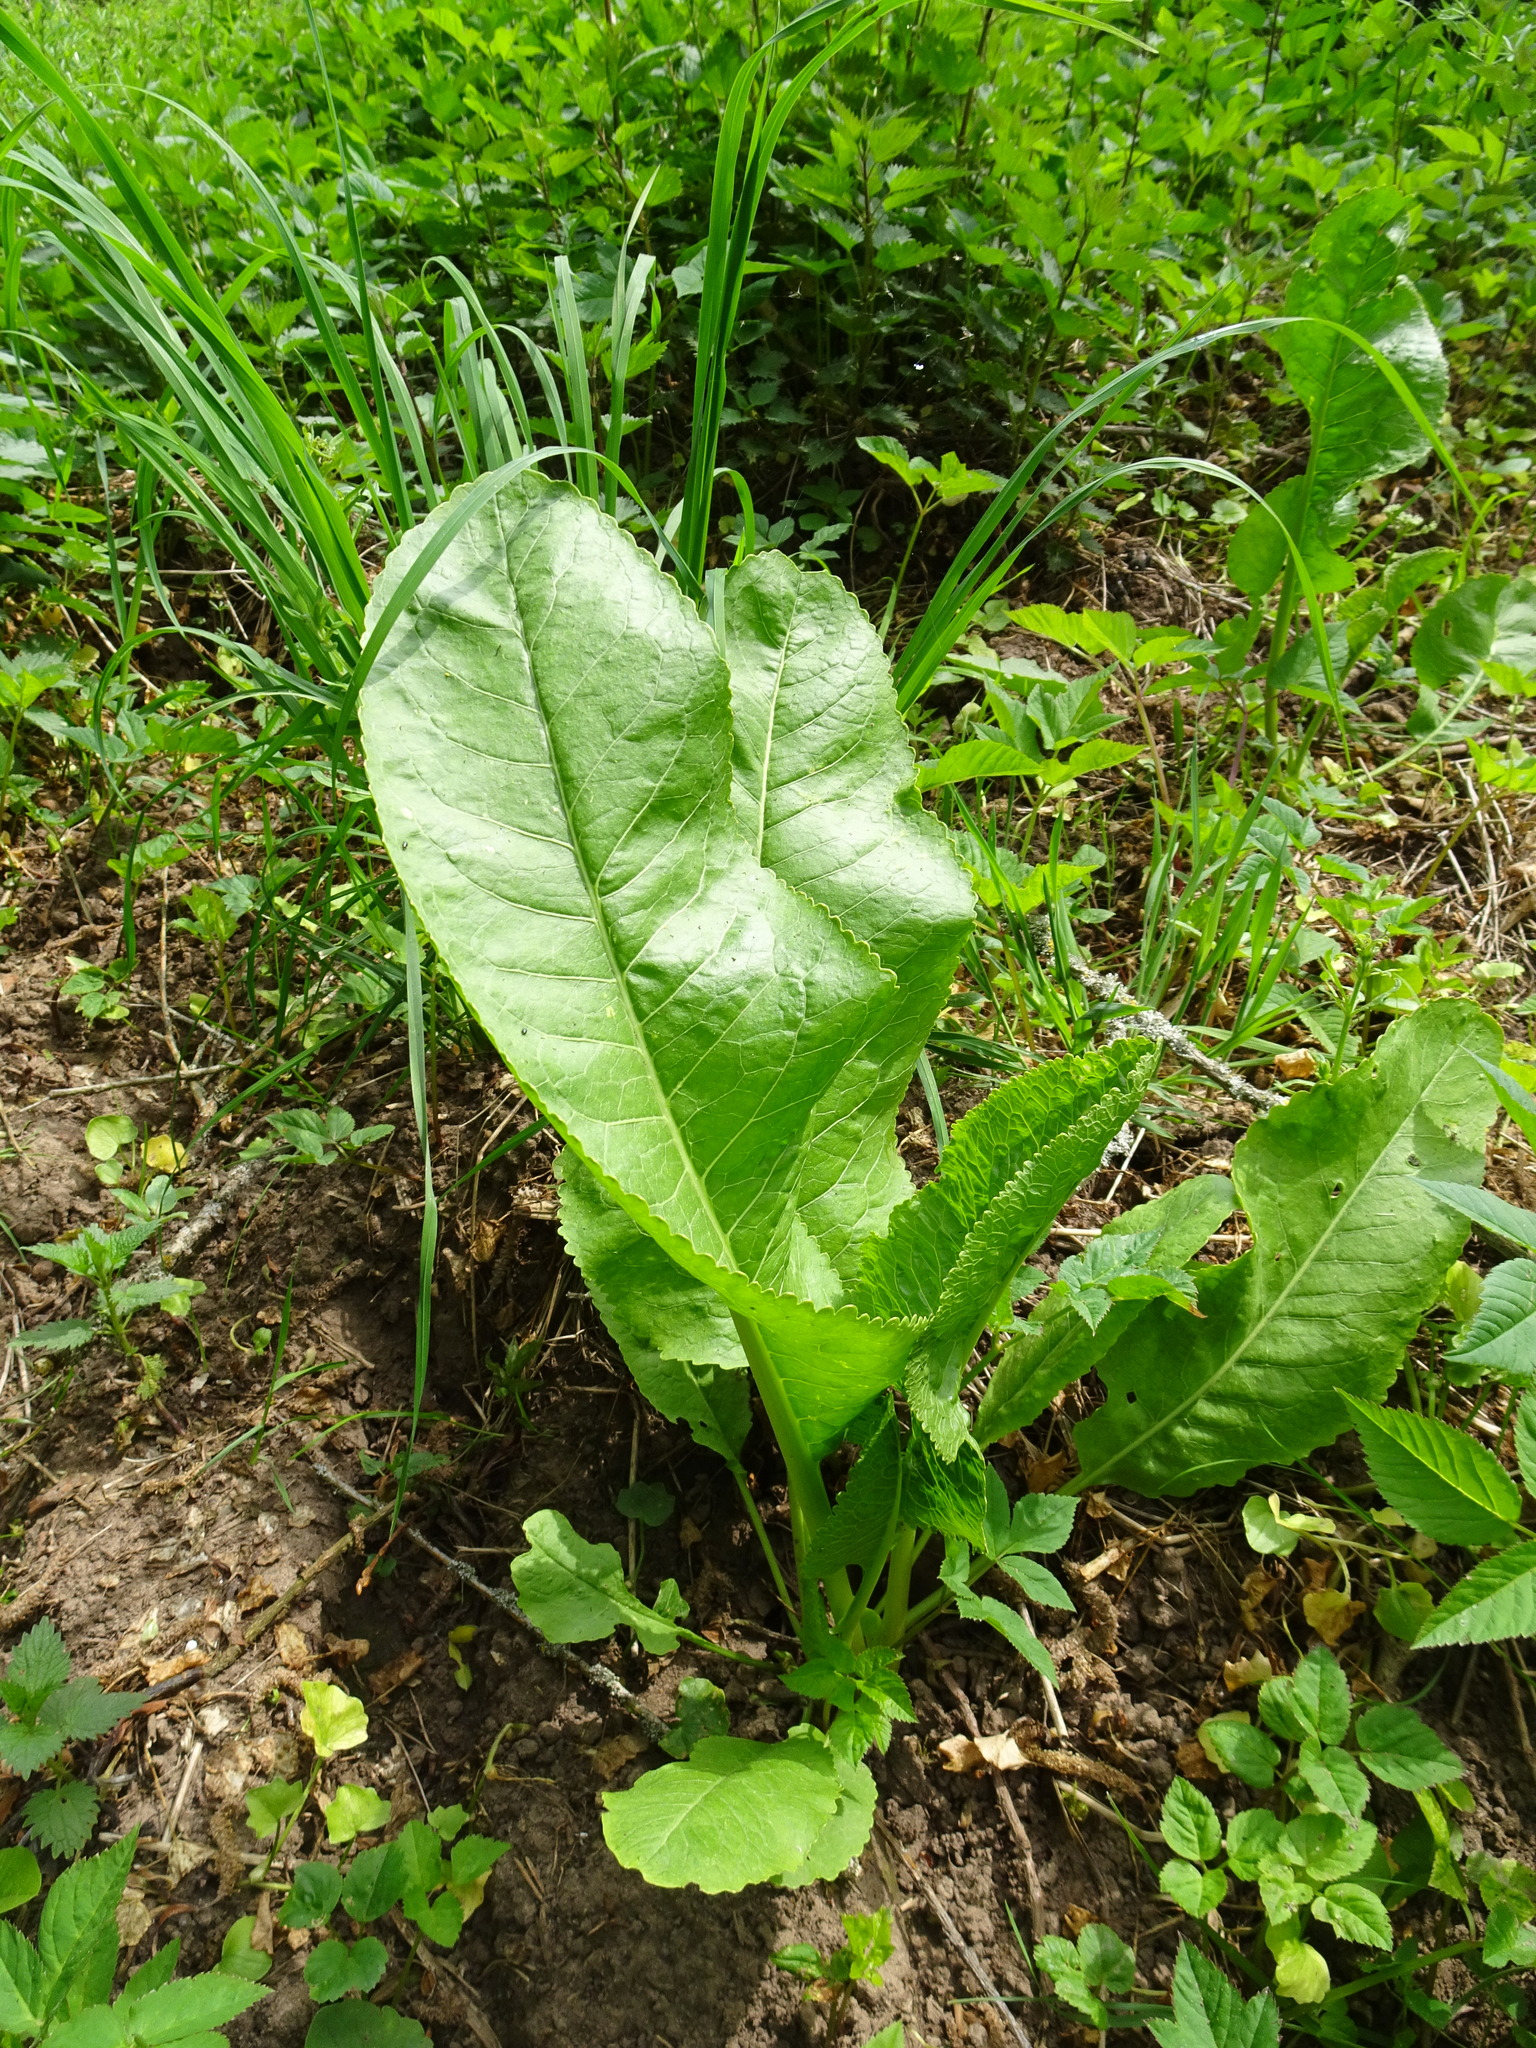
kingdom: Plantae
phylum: Tracheophyta
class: Magnoliopsida
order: Brassicales
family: Brassicaceae
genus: Armoracia
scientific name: Armoracia rusticana
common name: Horseradish
